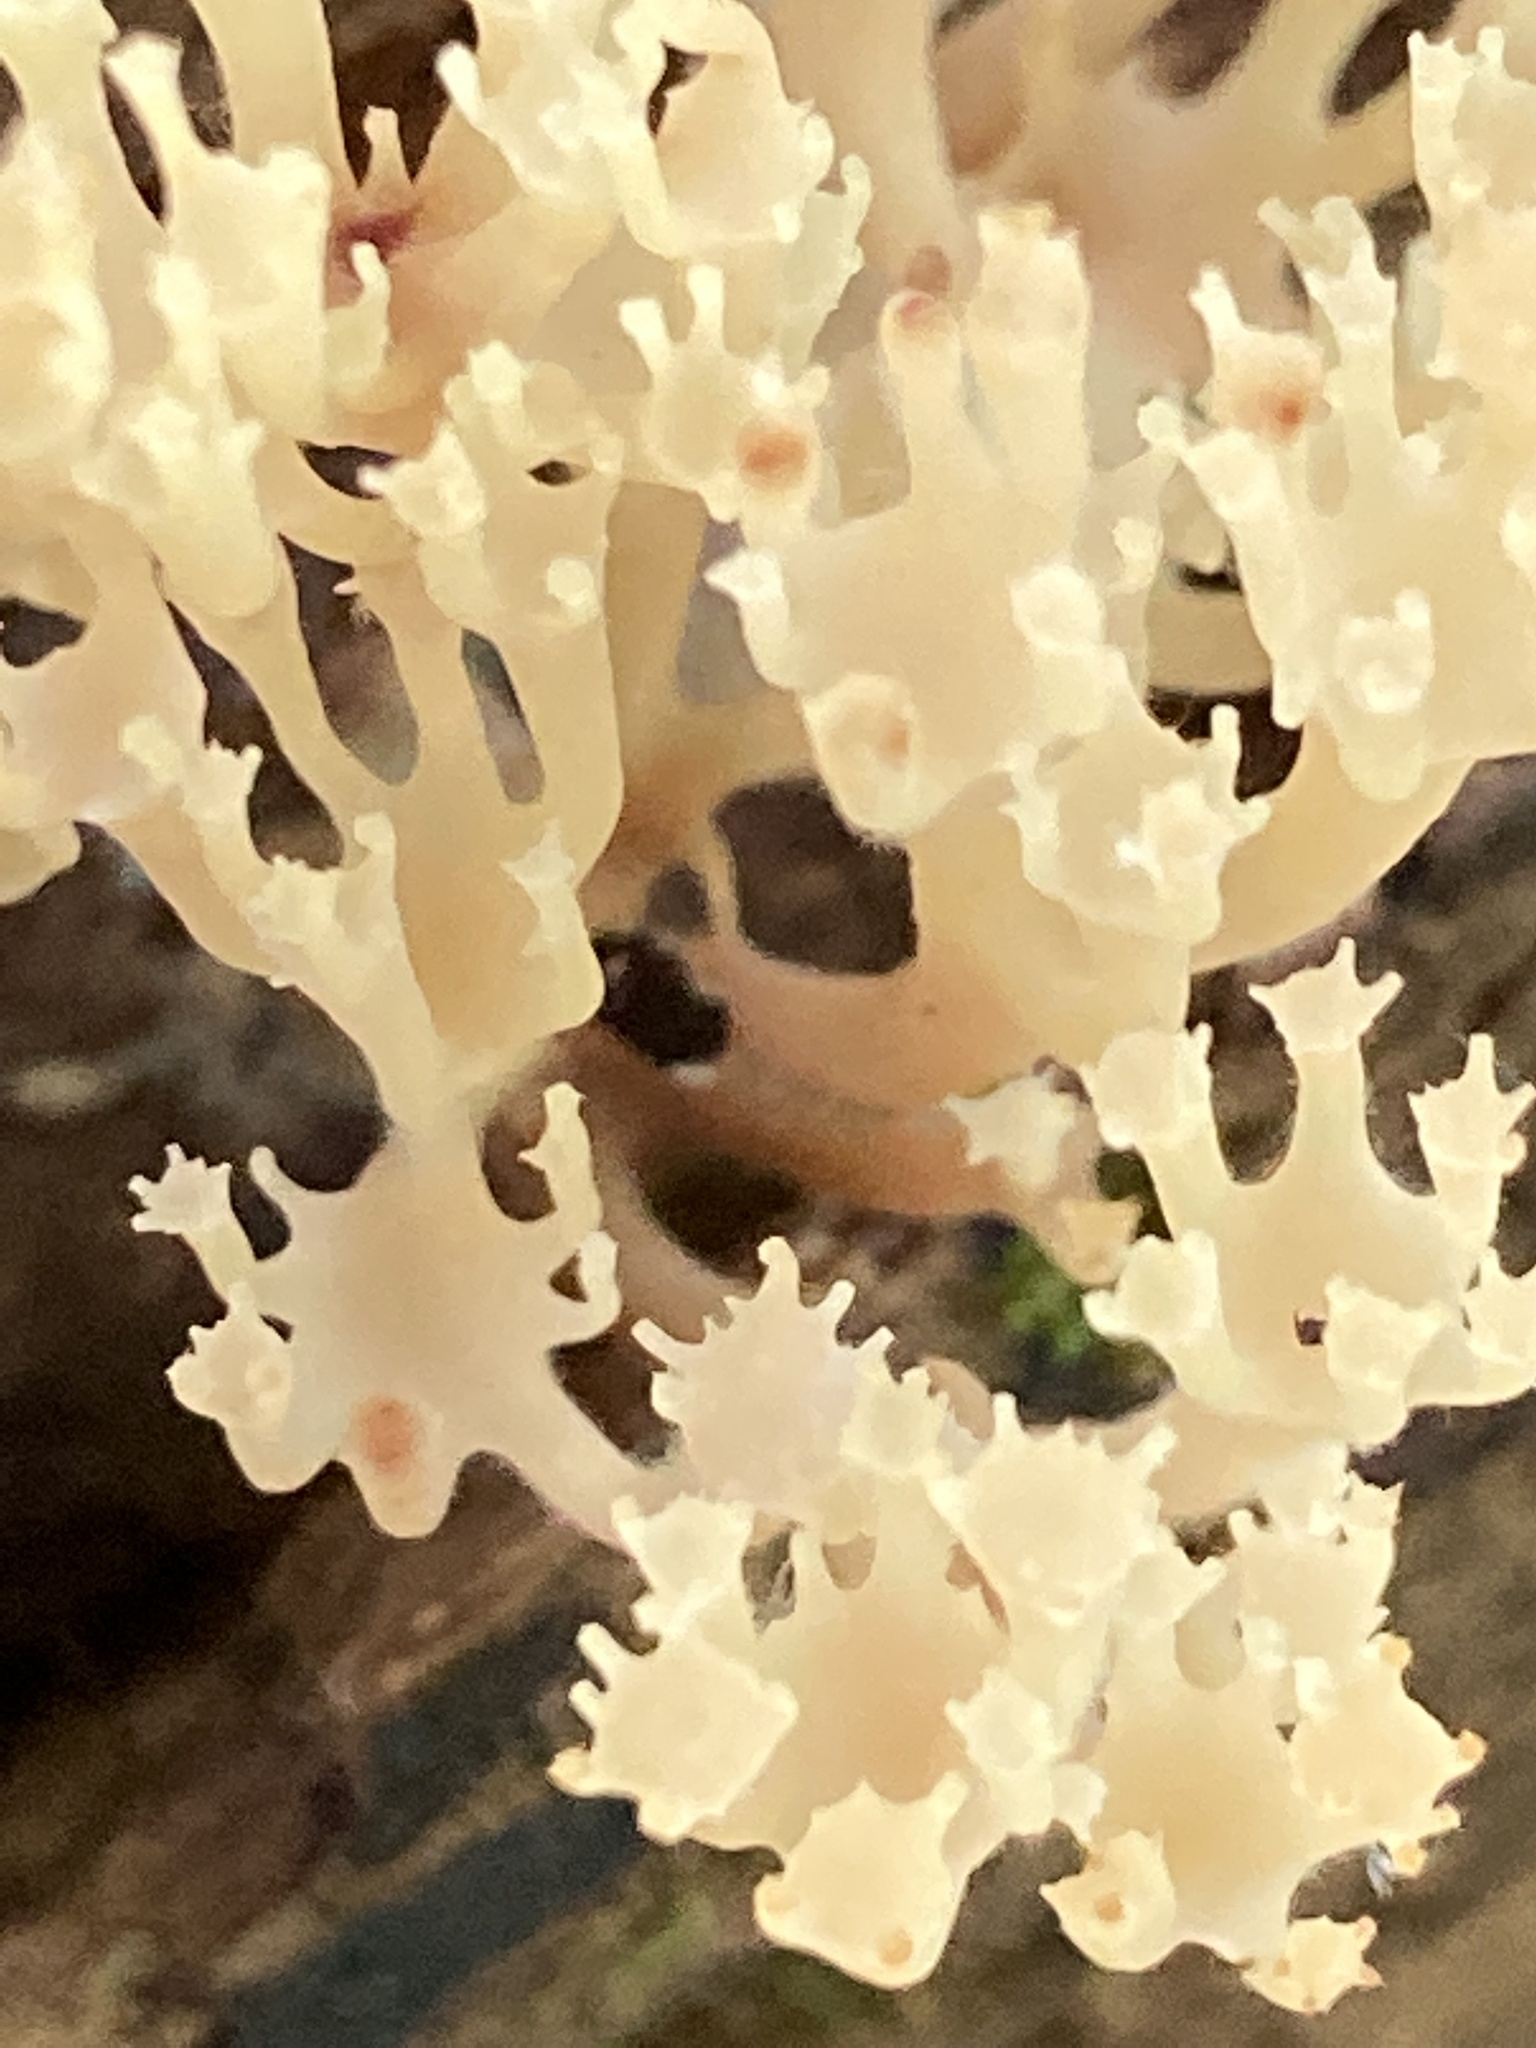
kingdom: Fungi
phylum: Basidiomycota
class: Agaricomycetes
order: Russulales
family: Auriscalpiaceae
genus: Artomyces
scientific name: Artomyces pyxidatus
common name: Crown-tipped coral fungus
